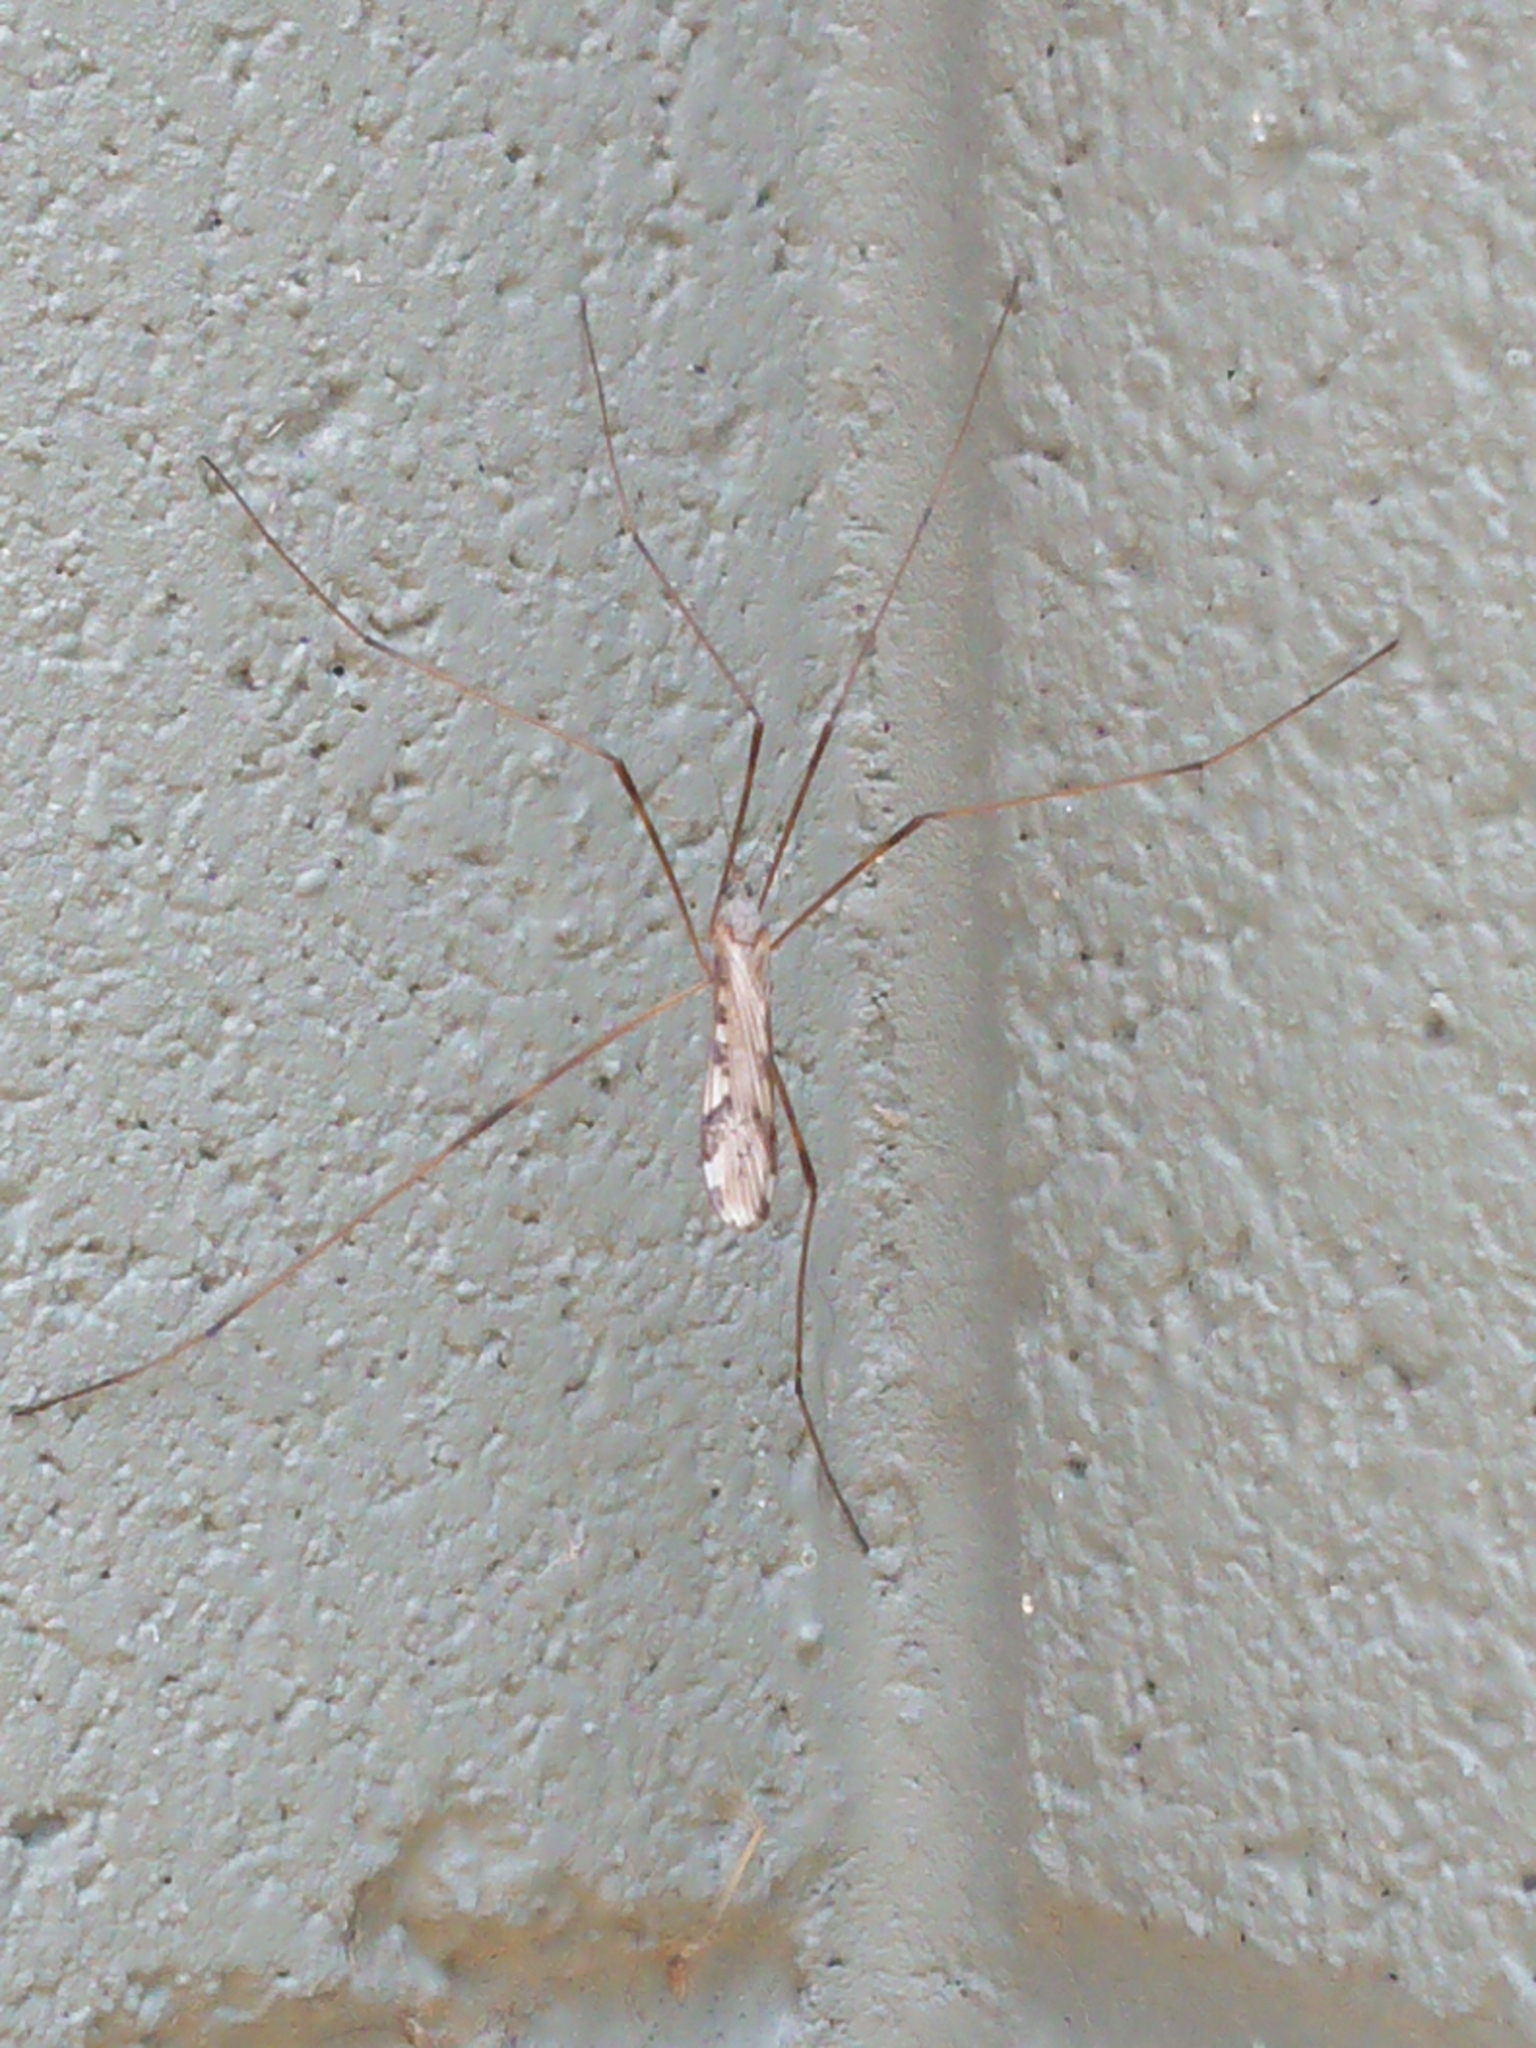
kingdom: Animalia
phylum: Arthropoda
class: Insecta
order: Diptera
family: Limoniidae
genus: Paralimnophila
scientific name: Paralimnophila skusei
